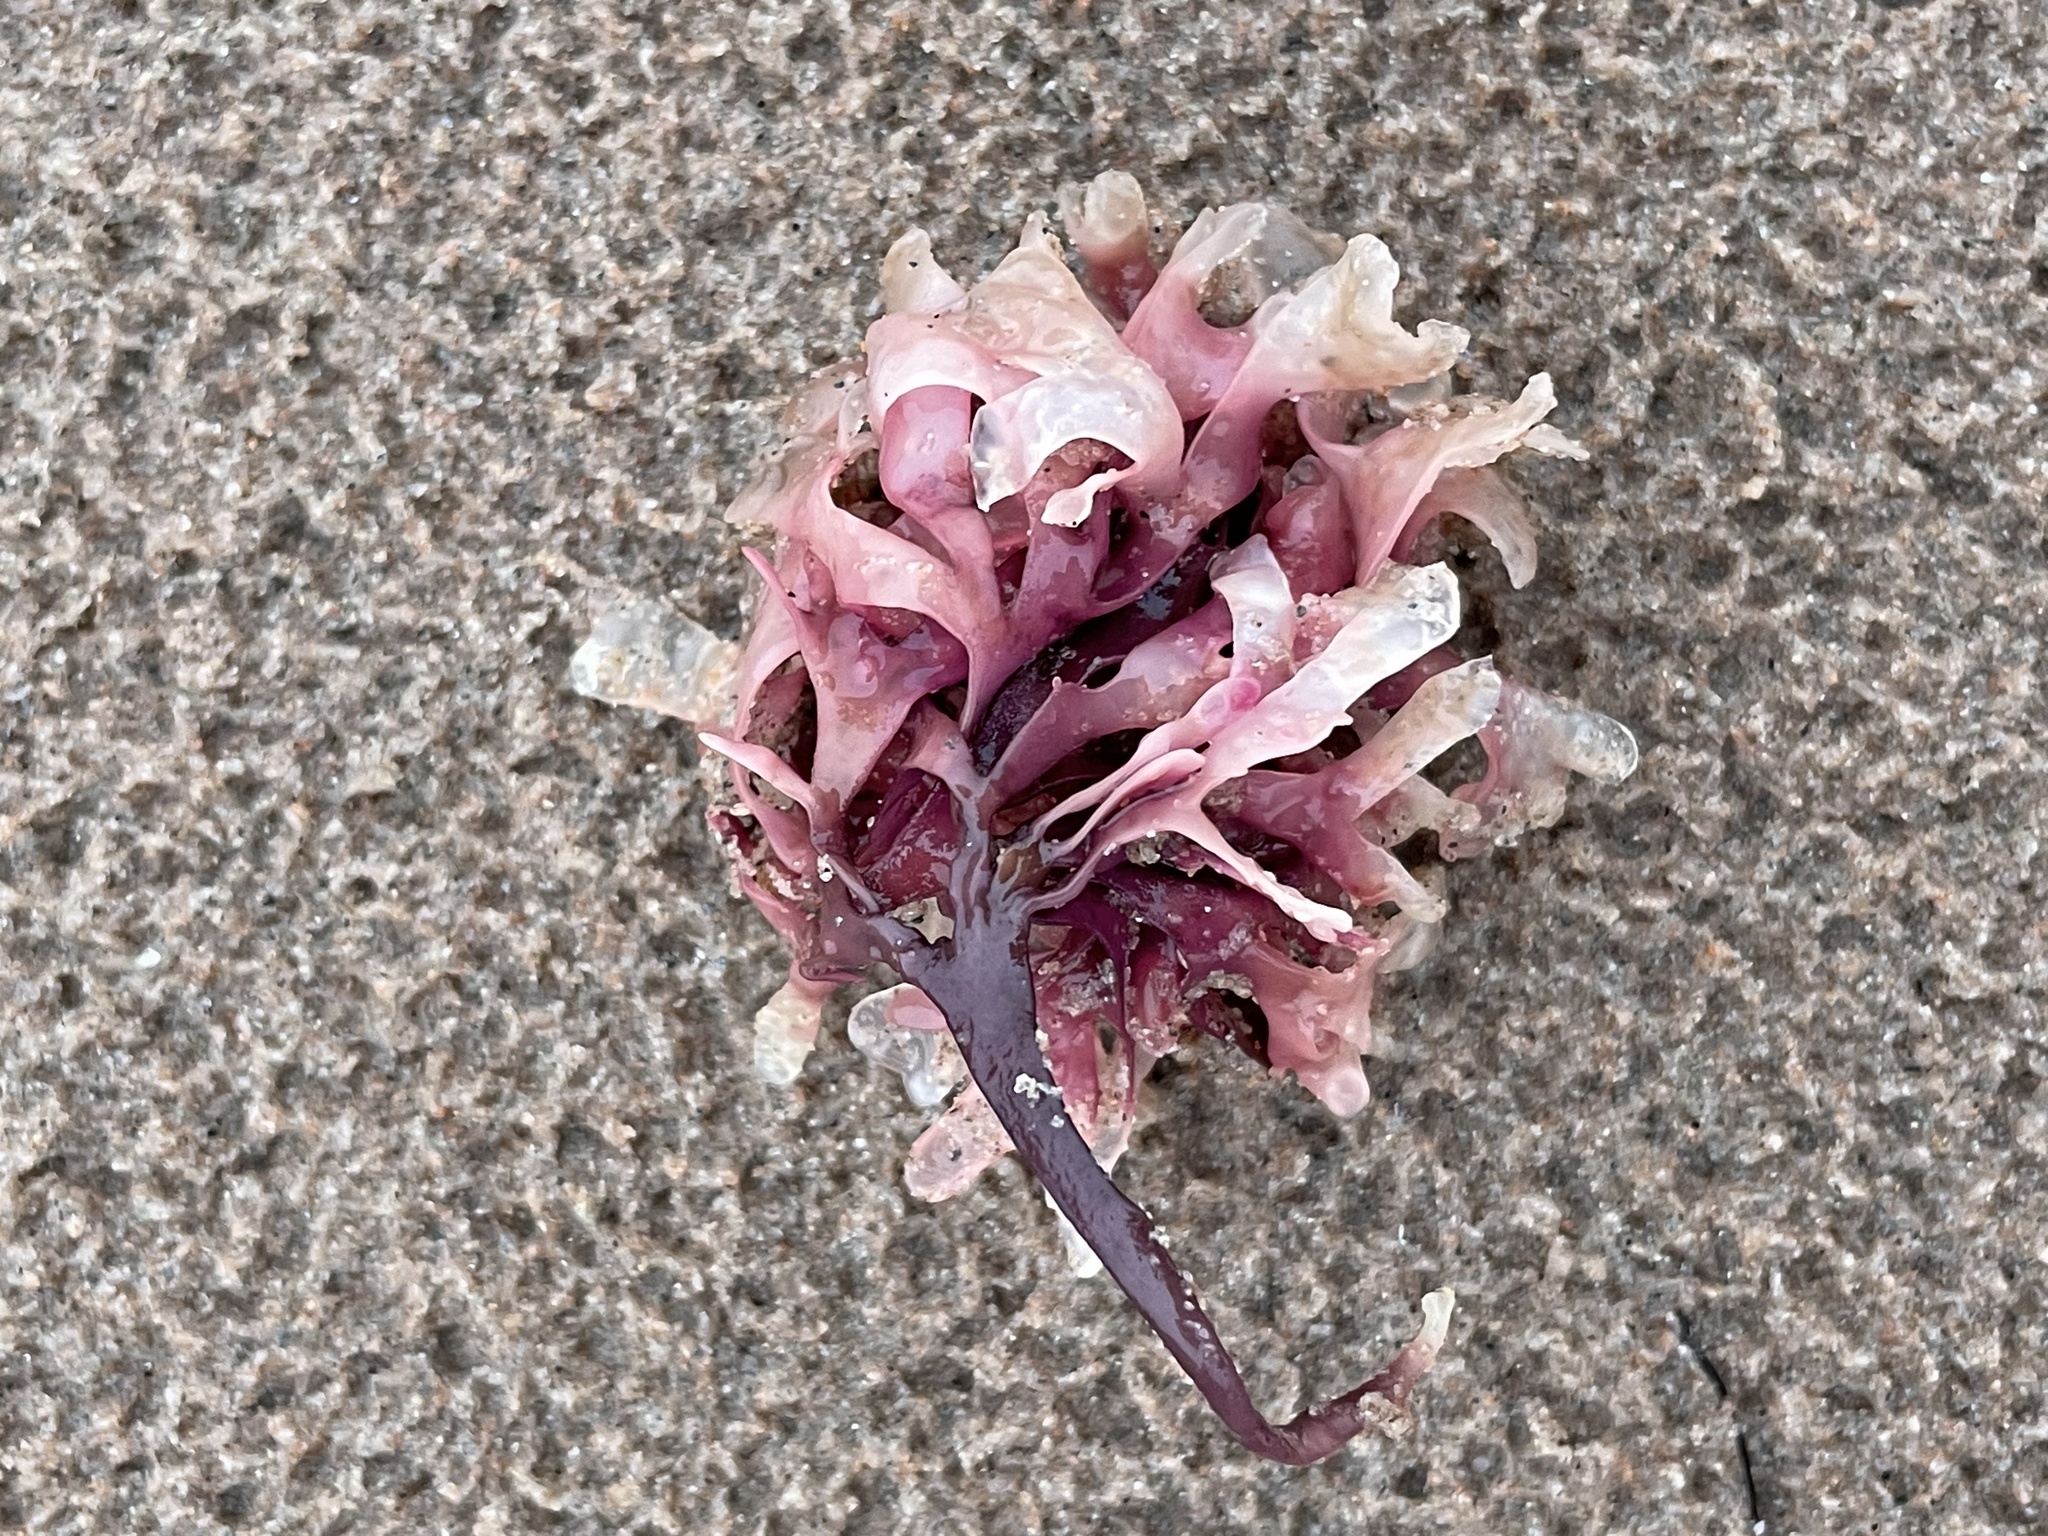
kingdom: Plantae
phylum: Rhodophyta
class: Florideophyceae
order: Gigartinales
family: Gigartinaceae
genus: Chondrus
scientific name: Chondrus crispus
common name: Carrageen
